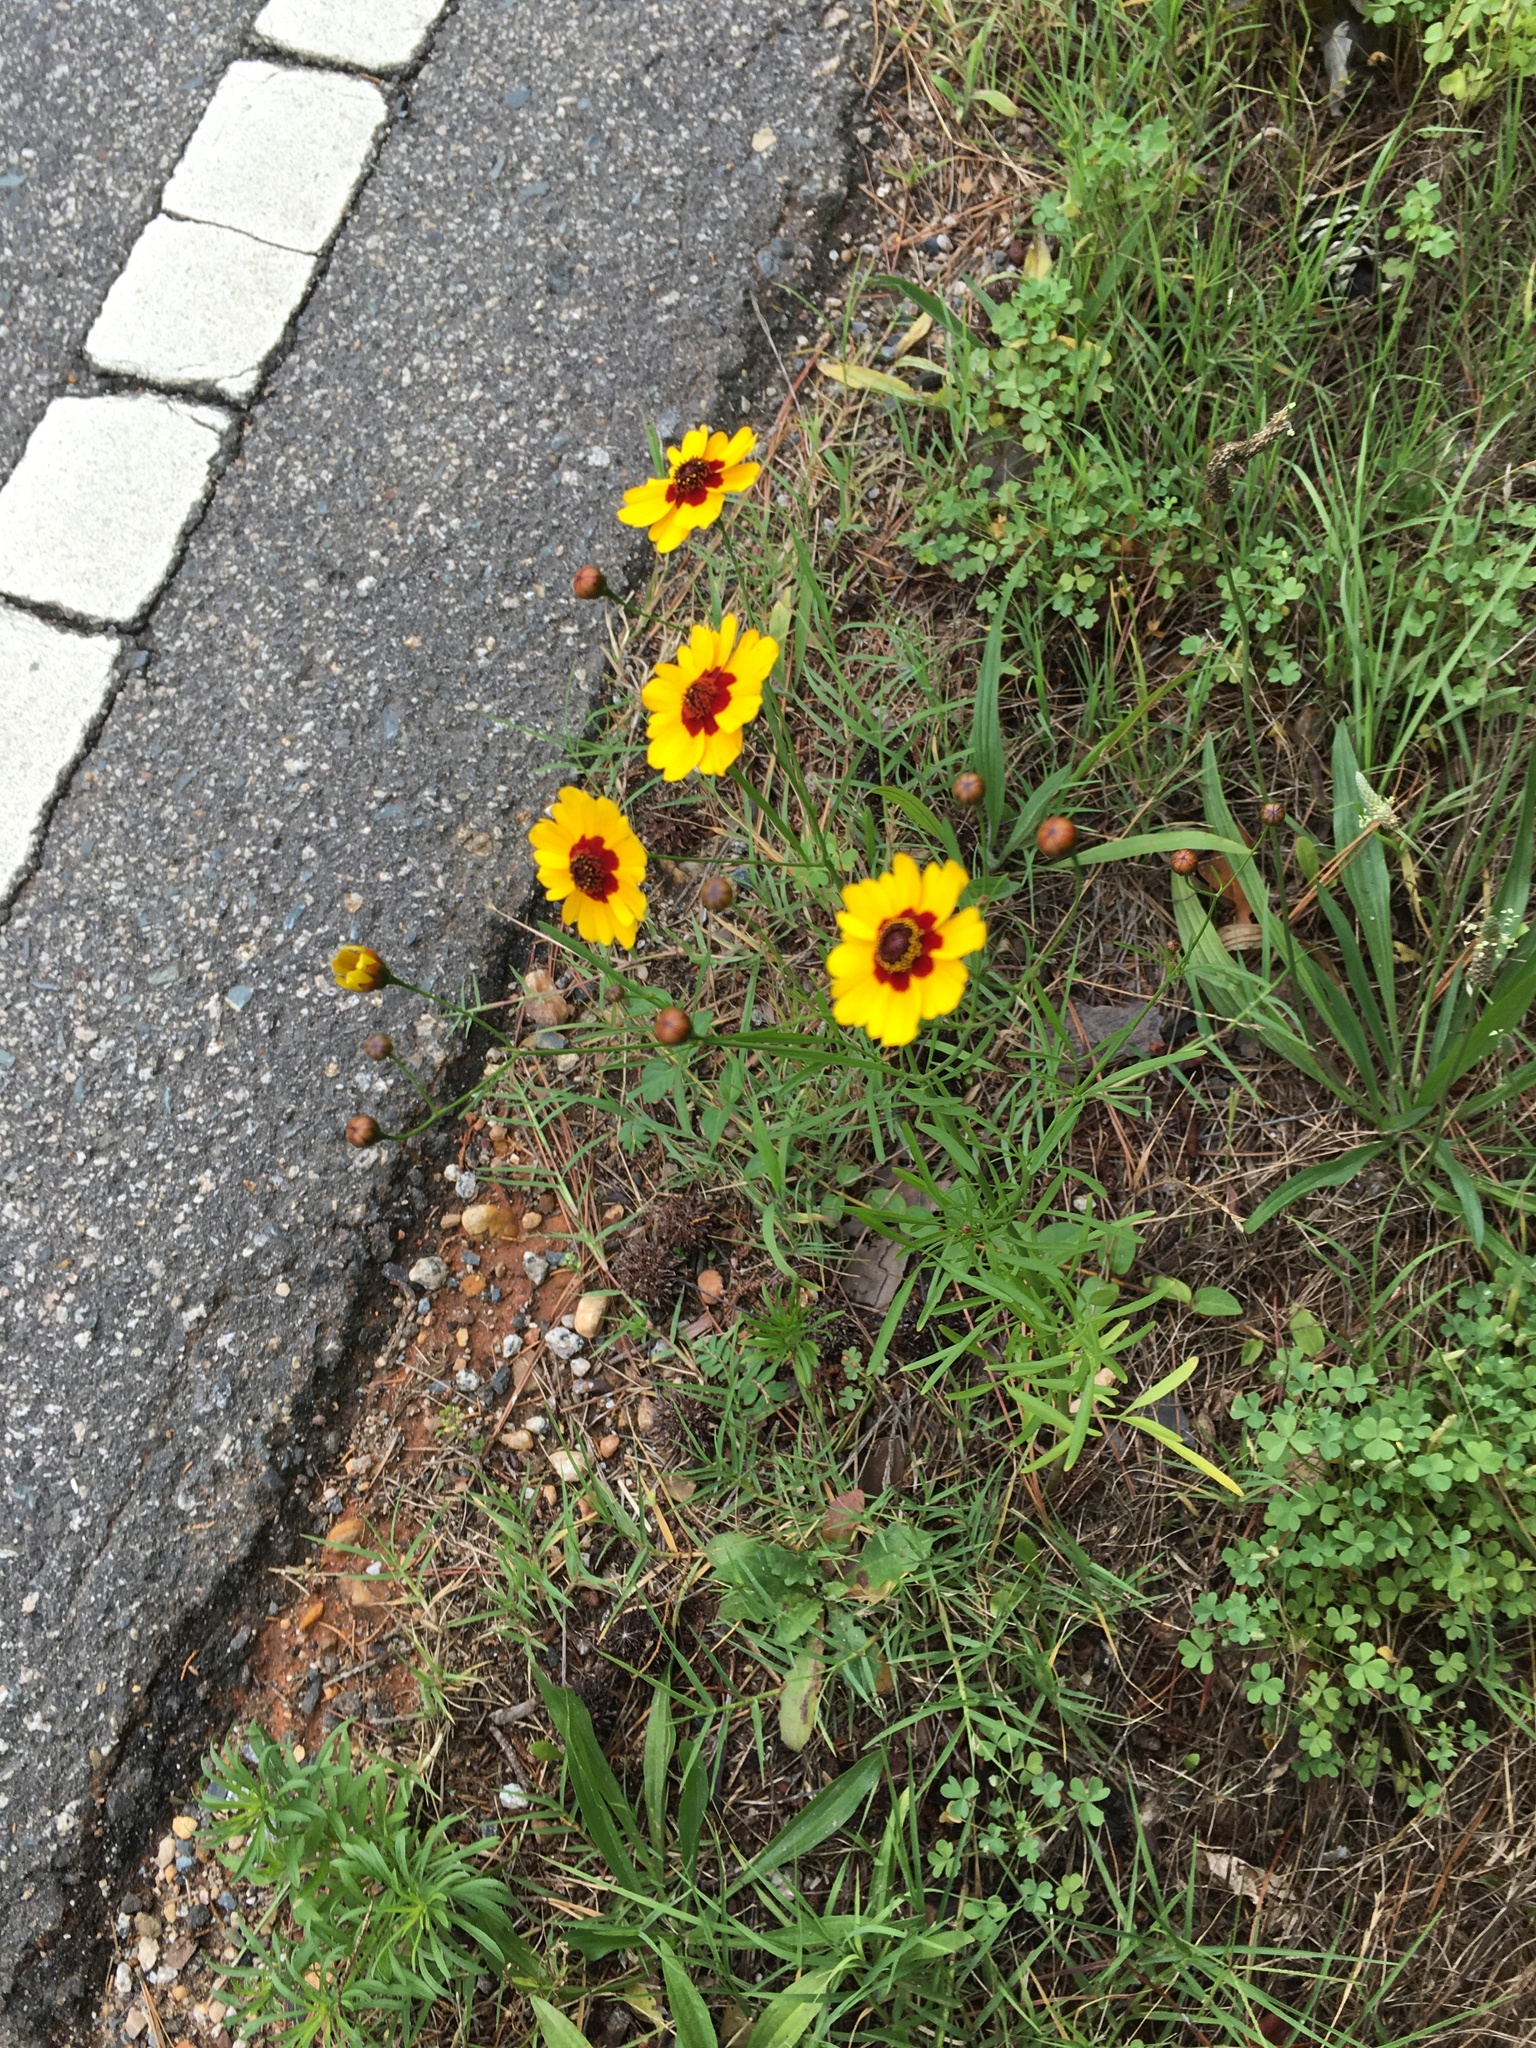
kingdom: Plantae
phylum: Tracheophyta
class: Magnoliopsida
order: Asterales
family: Asteraceae
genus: Coreopsis
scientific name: Coreopsis tinctoria
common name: Garden tickseed
